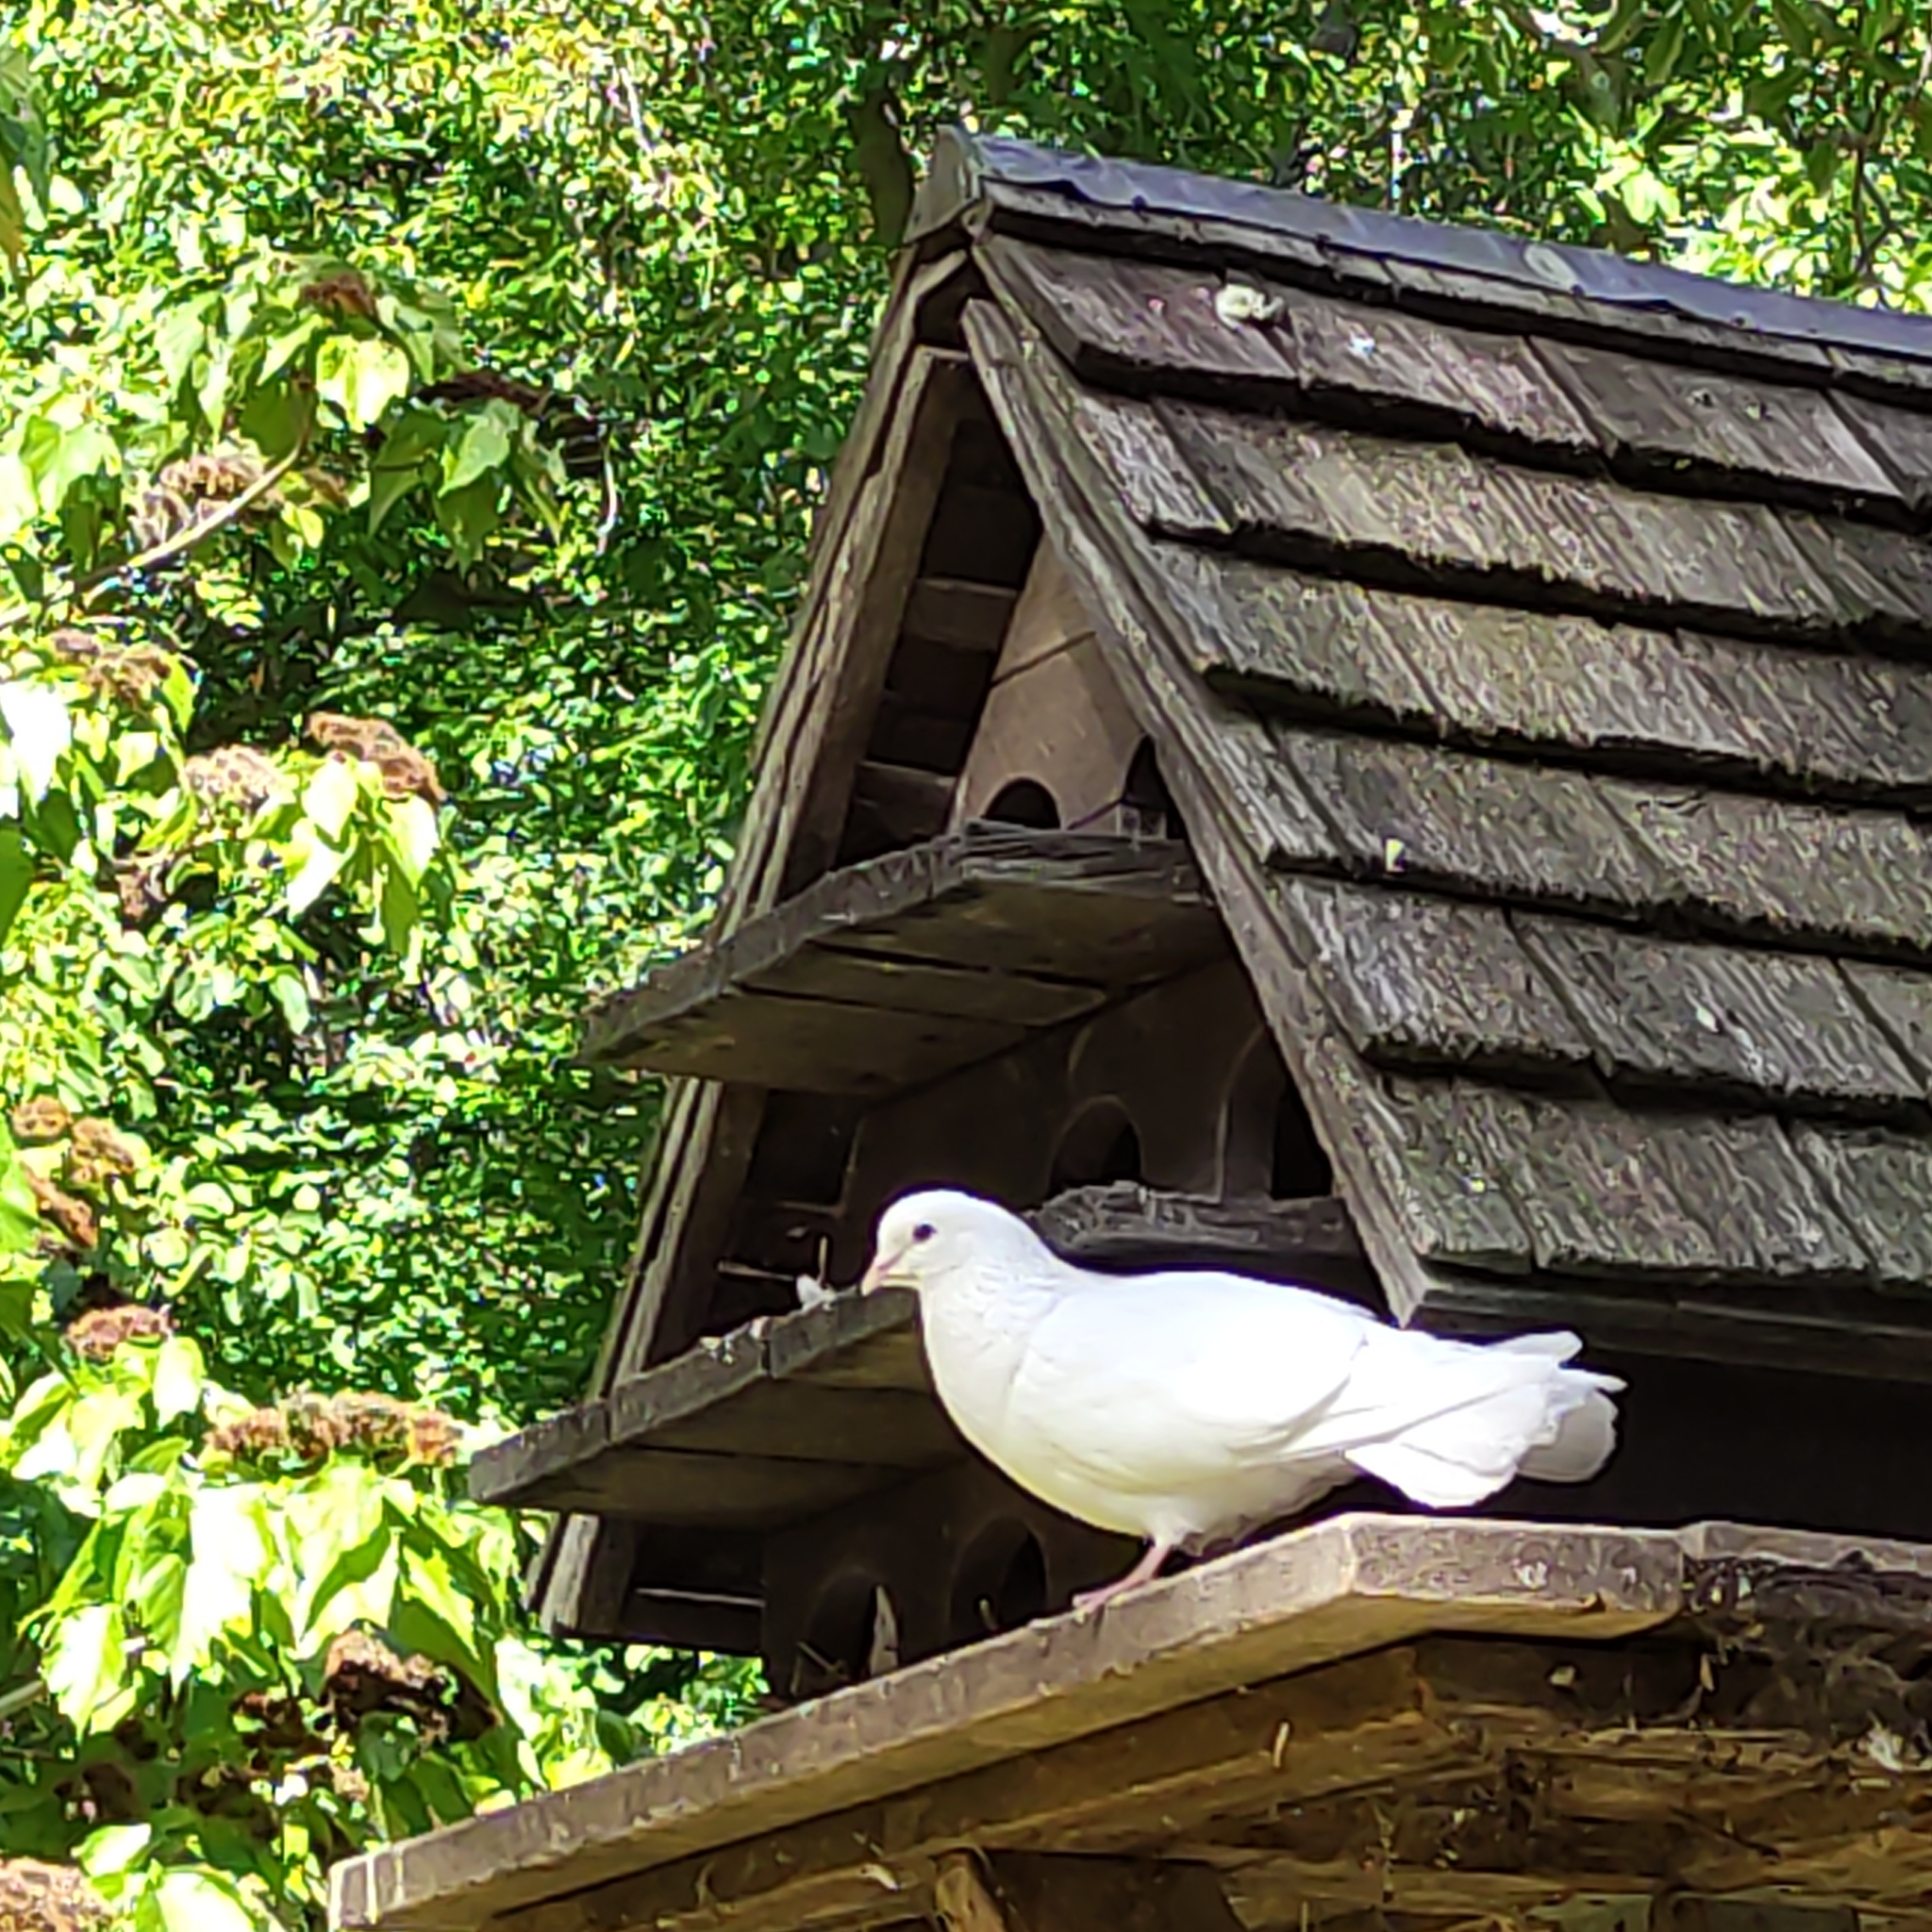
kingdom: Animalia
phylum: Chordata
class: Aves
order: Columbiformes
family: Columbidae
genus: Columba
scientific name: Columba livia
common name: Rock pigeon
